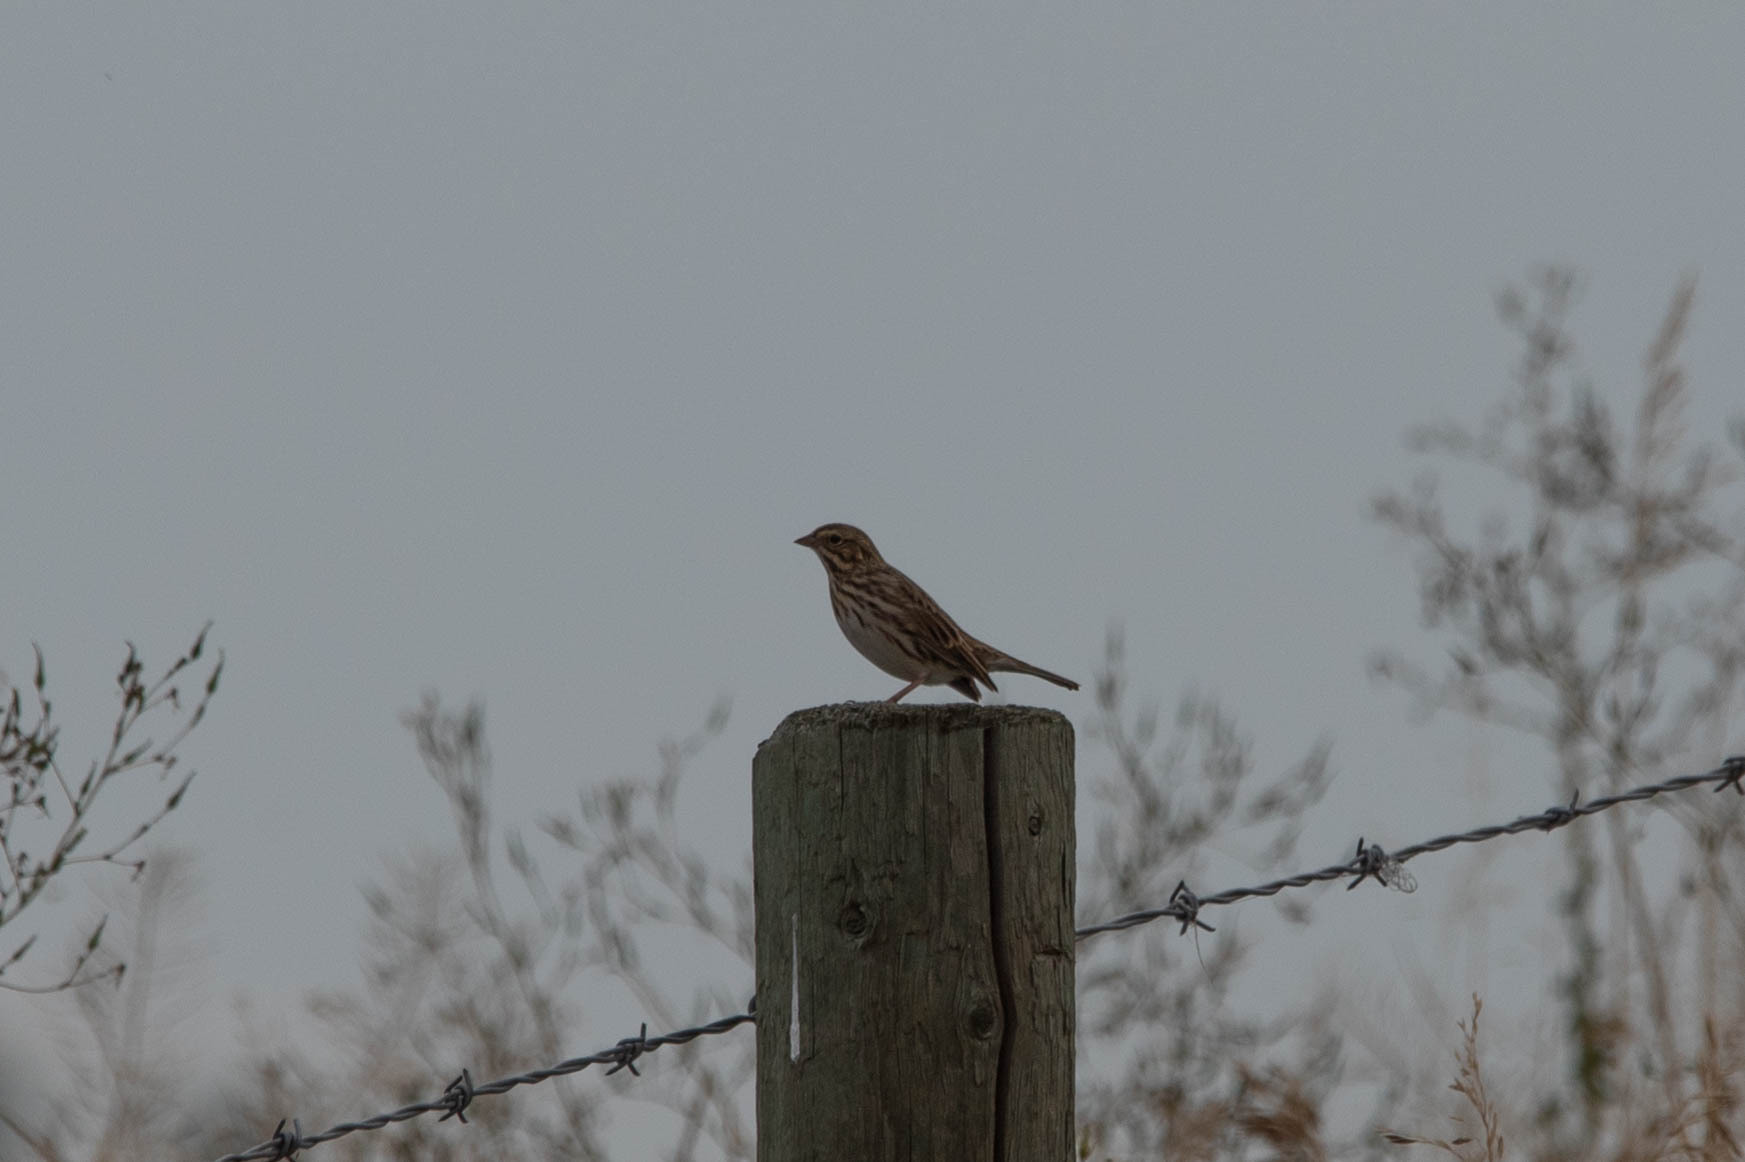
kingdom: Animalia
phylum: Chordata
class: Aves
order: Passeriformes
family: Passerellidae
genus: Passerculus
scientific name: Passerculus sandwichensis
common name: Savannah sparrow
